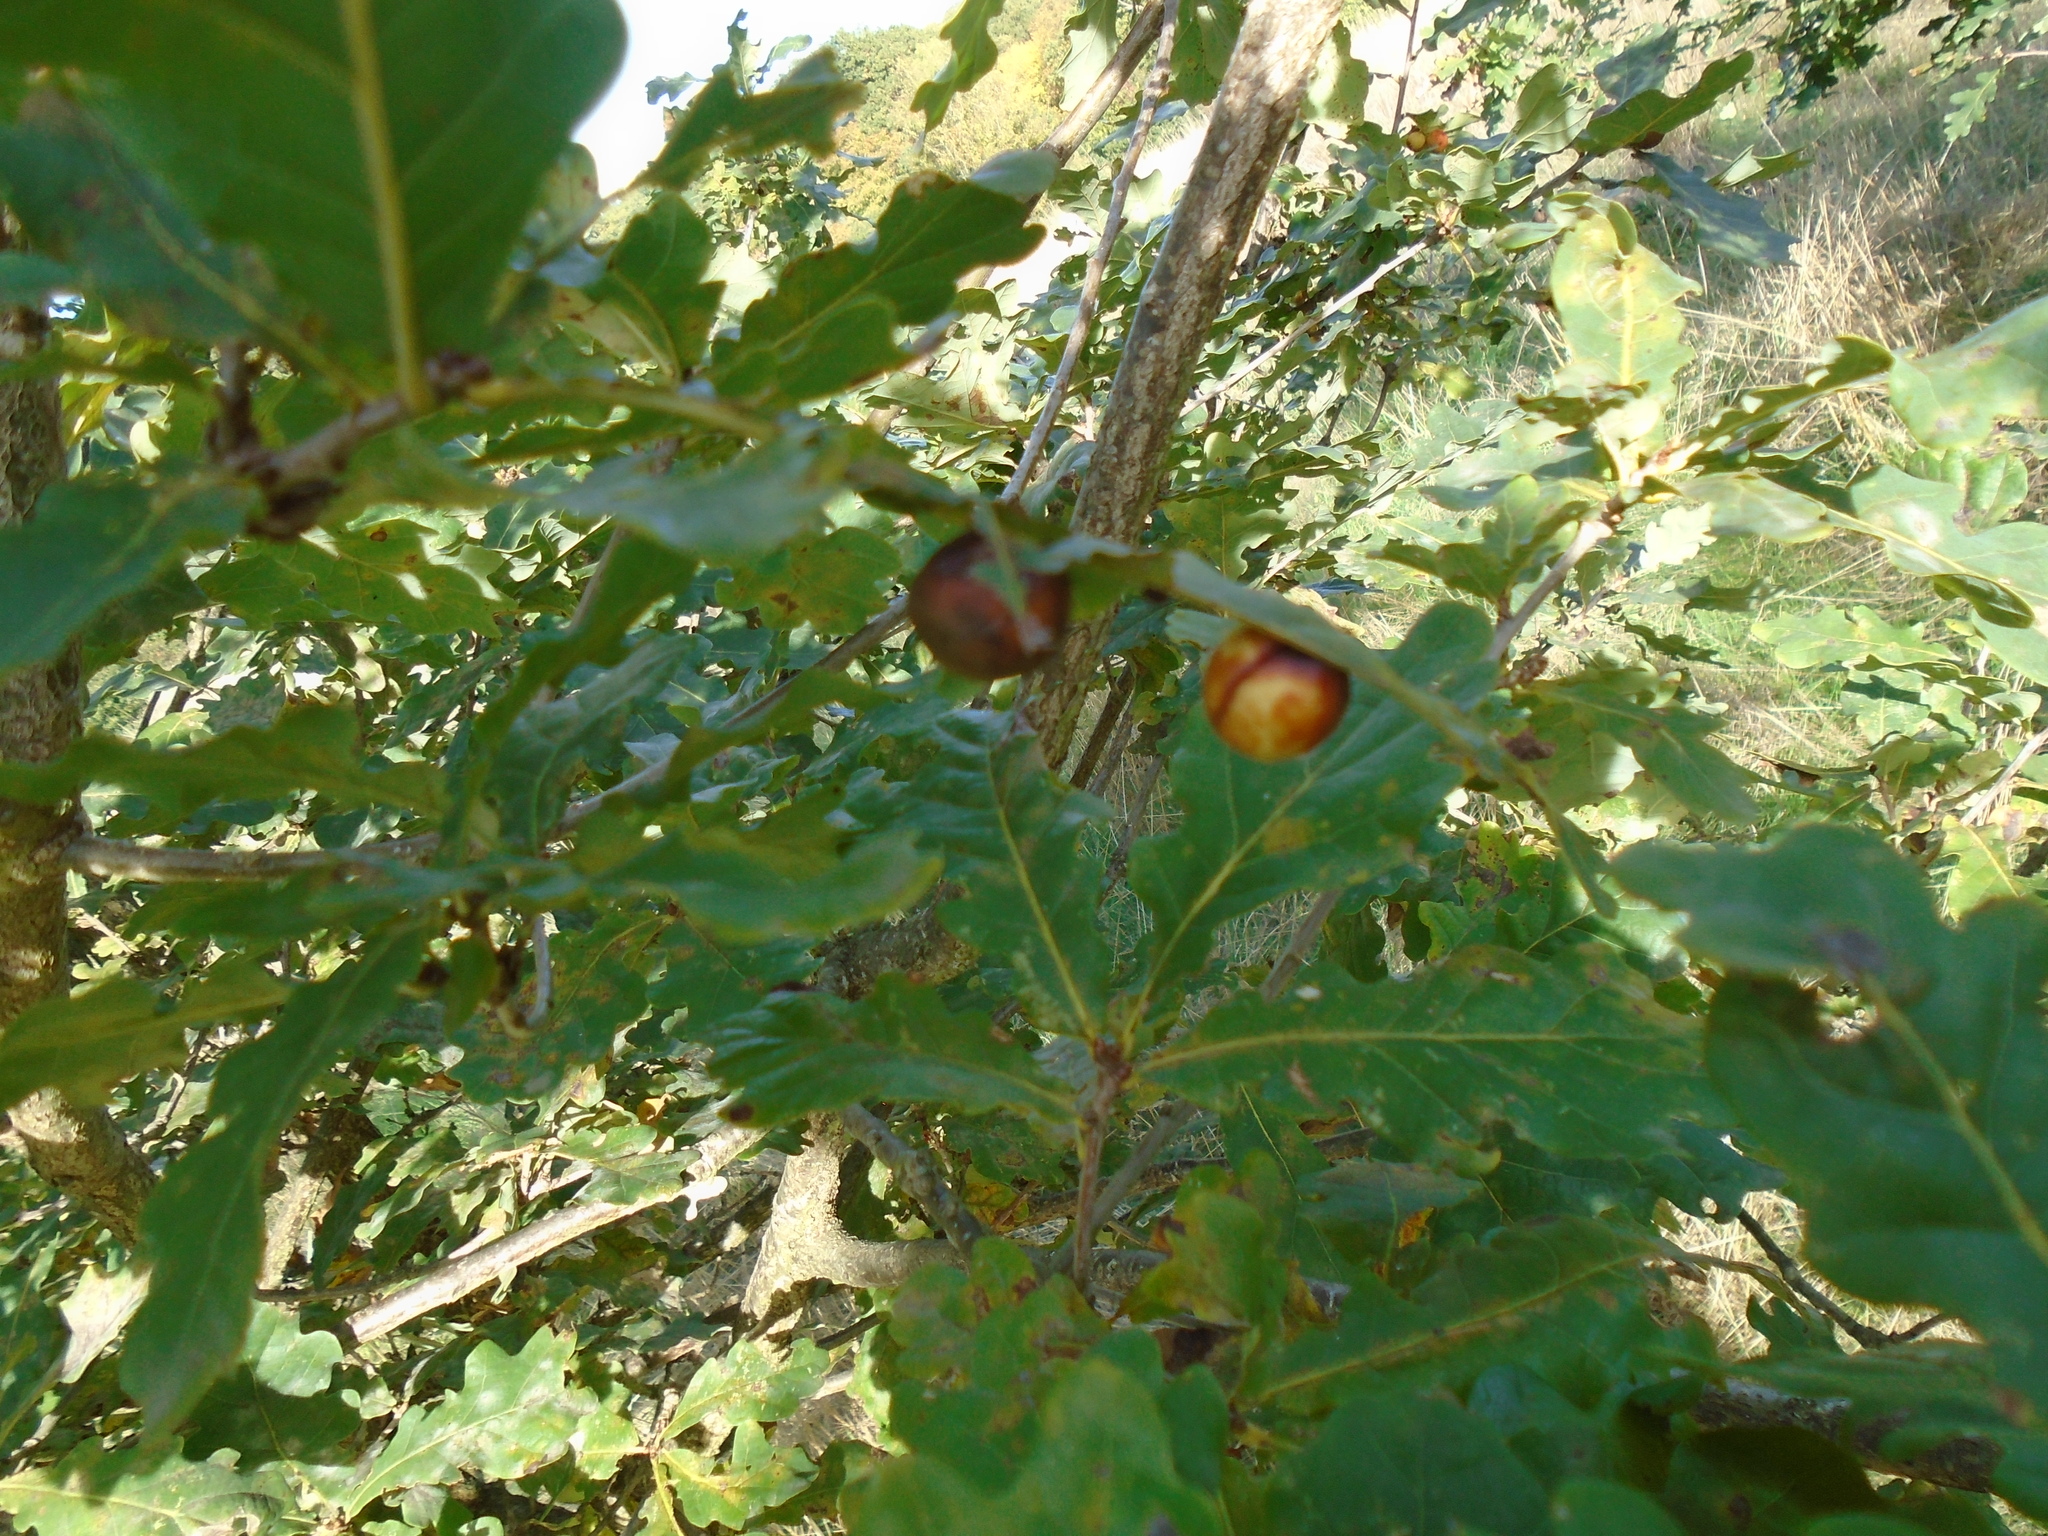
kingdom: Animalia
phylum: Arthropoda
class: Insecta
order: Hymenoptera
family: Cynipidae
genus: Cynips
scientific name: Cynips quercusfolii
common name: Cherry gall
